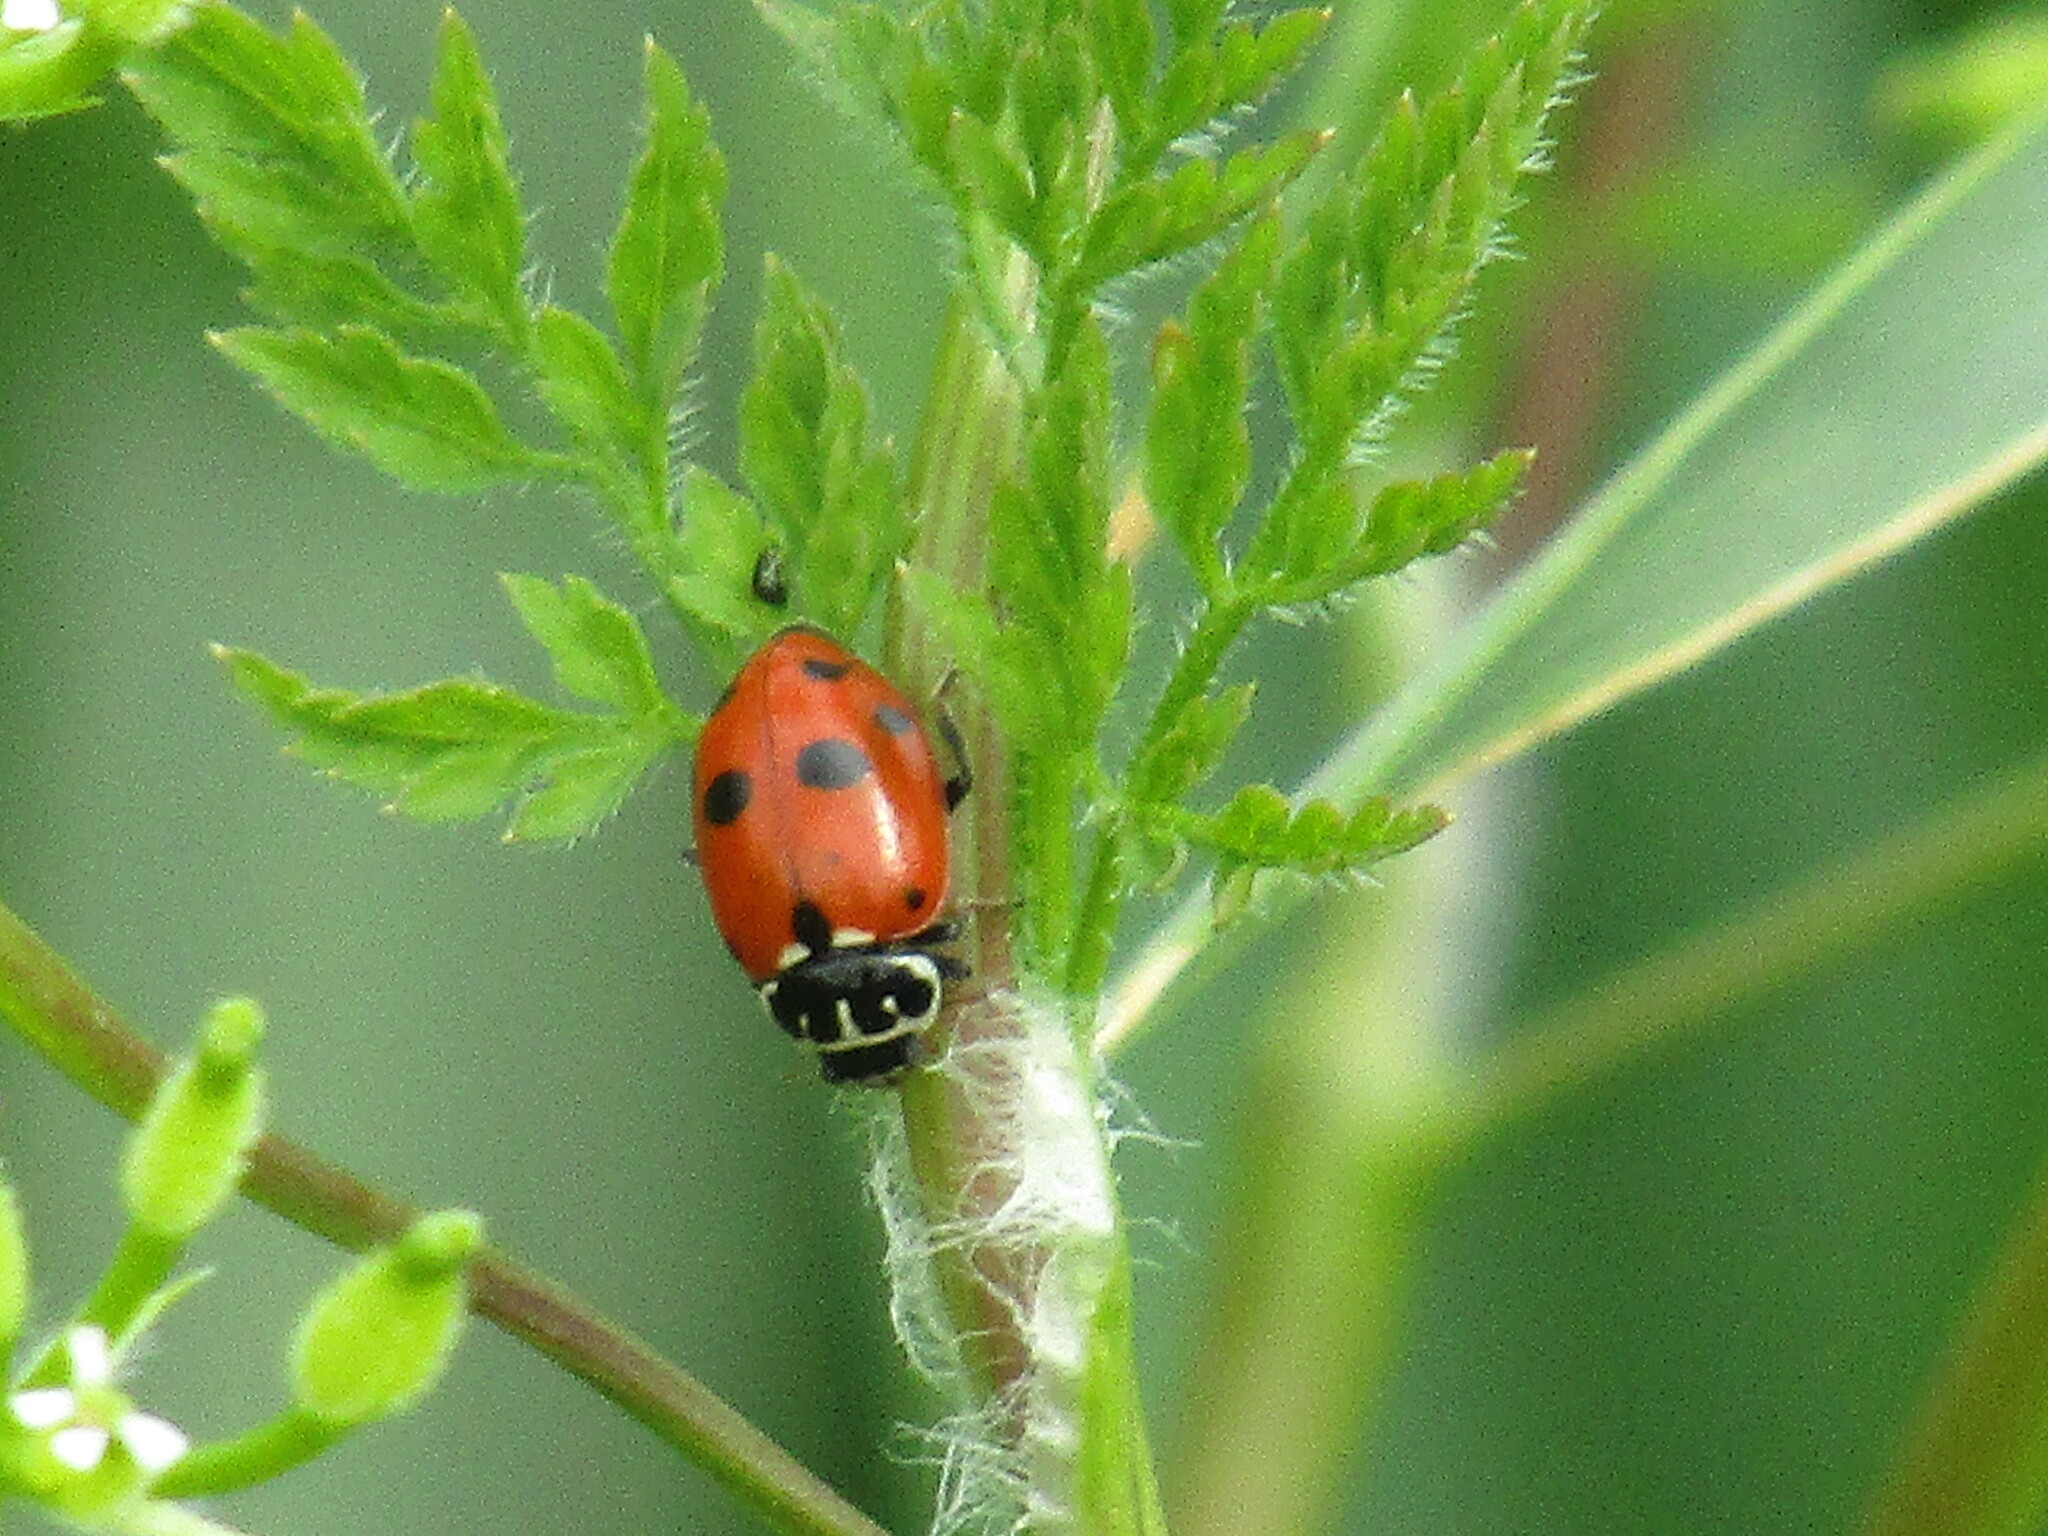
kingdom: Animalia
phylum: Arthropoda
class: Insecta
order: Coleoptera
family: Coccinellidae
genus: Hippodamia
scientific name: Hippodamia variegata
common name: Ladybird beetle
